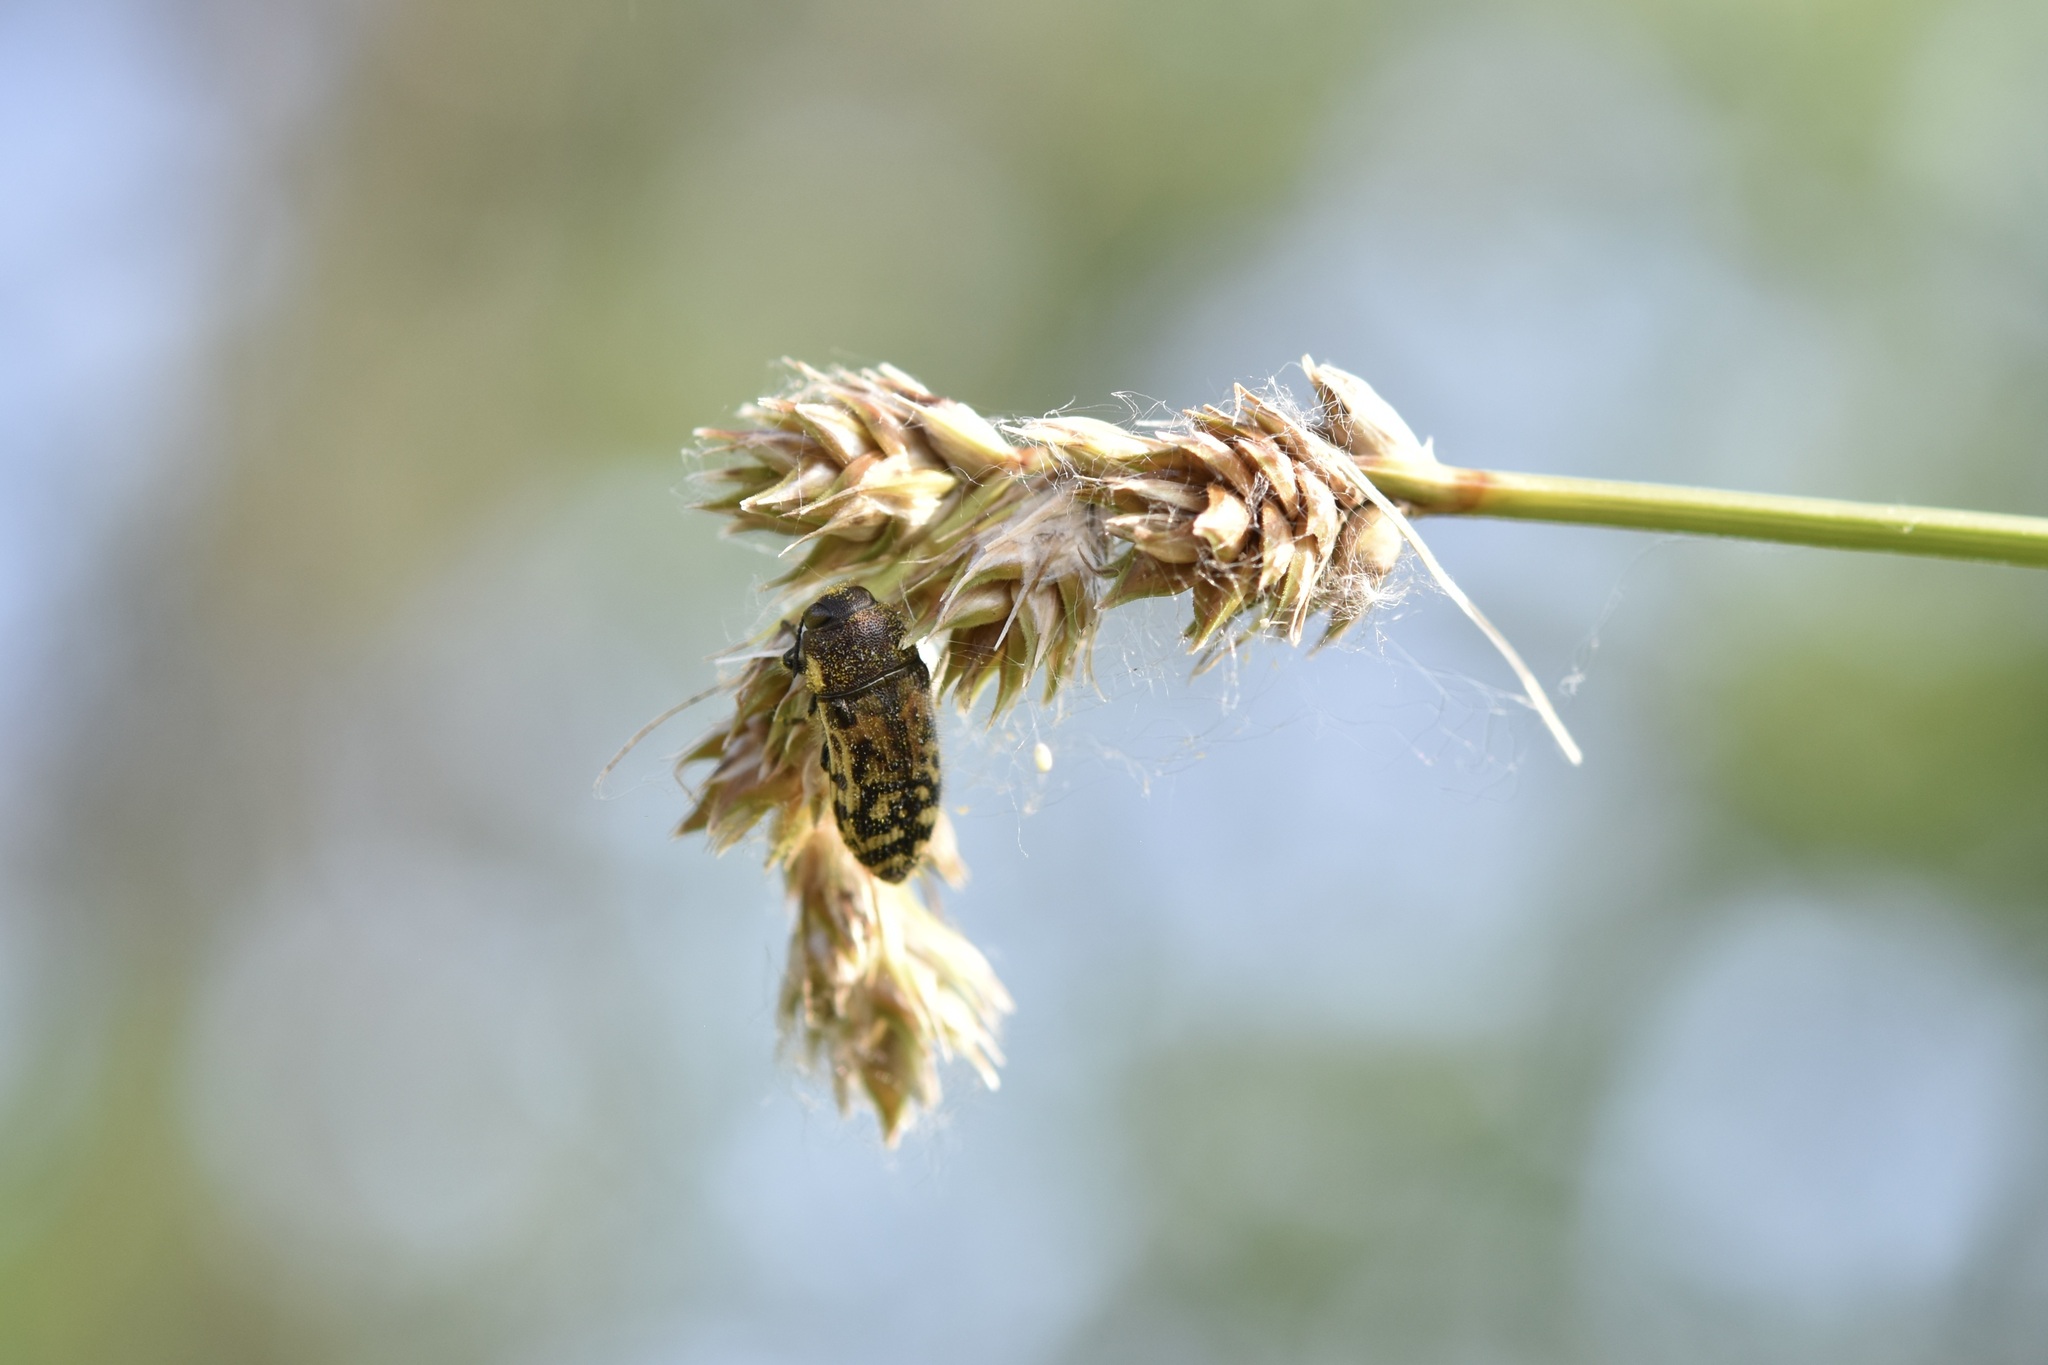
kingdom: Animalia
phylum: Arthropoda
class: Insecta
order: Coleoptera
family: Buprestidae
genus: Acmaeodera
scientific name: Acmaeodera mixta
